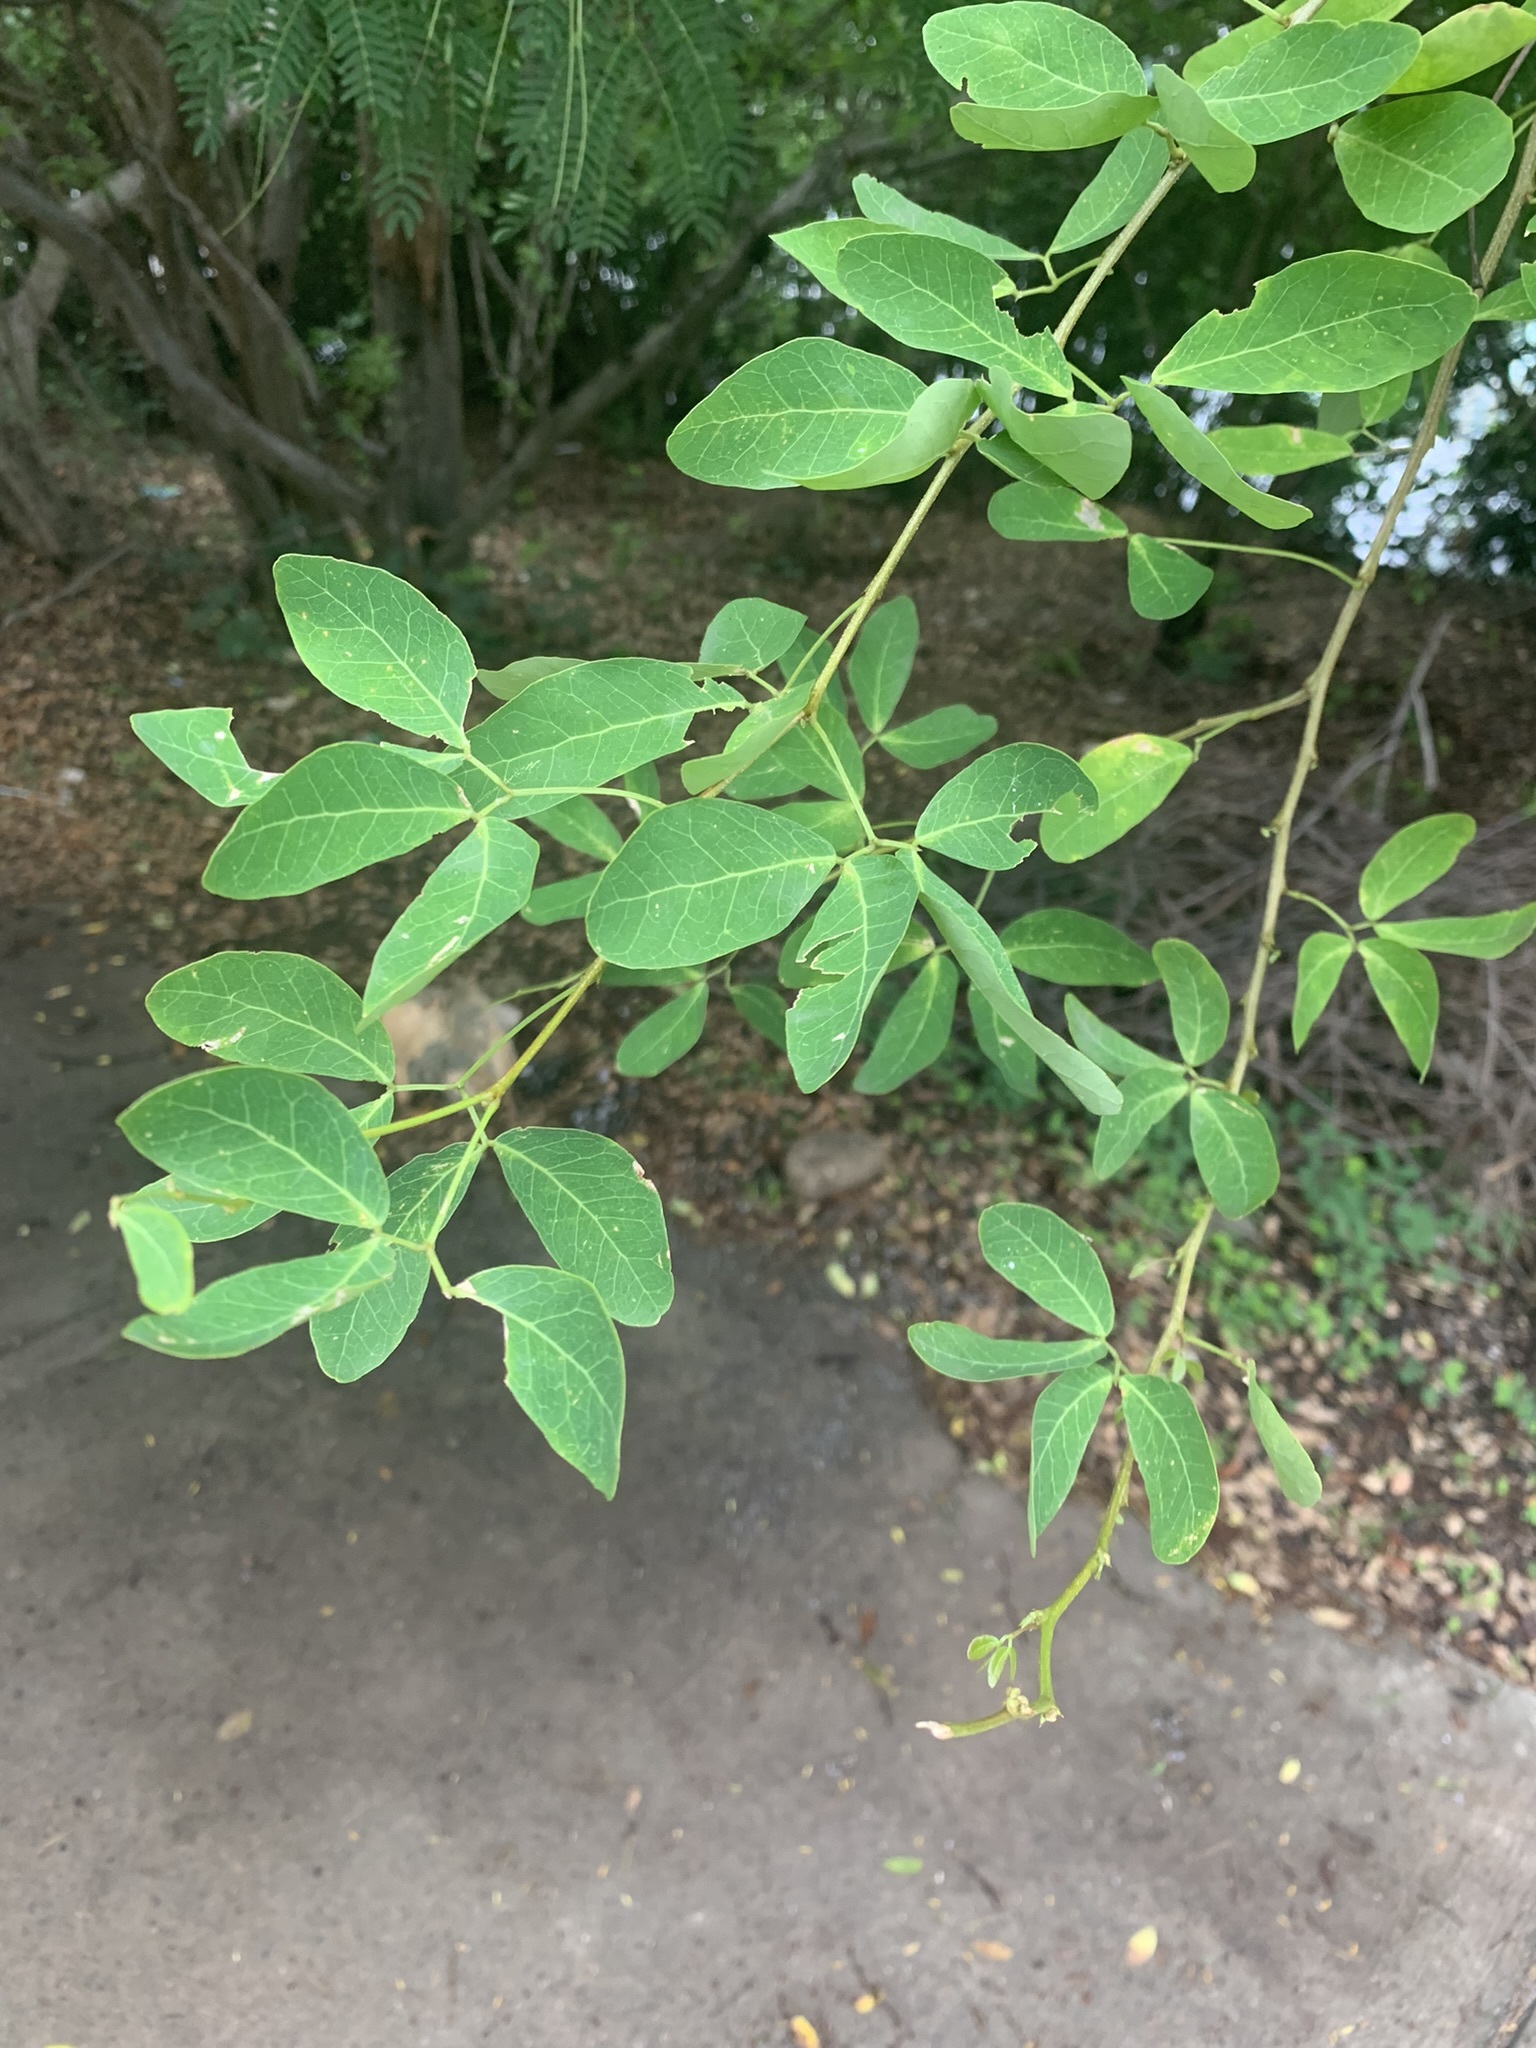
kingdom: Plantae
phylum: Tracheophyta
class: Magnoliopsida
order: Malpighiales
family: Rhizophoraceae
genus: Rhizophora
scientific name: Rhizophora mangle
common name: Red mangrove
